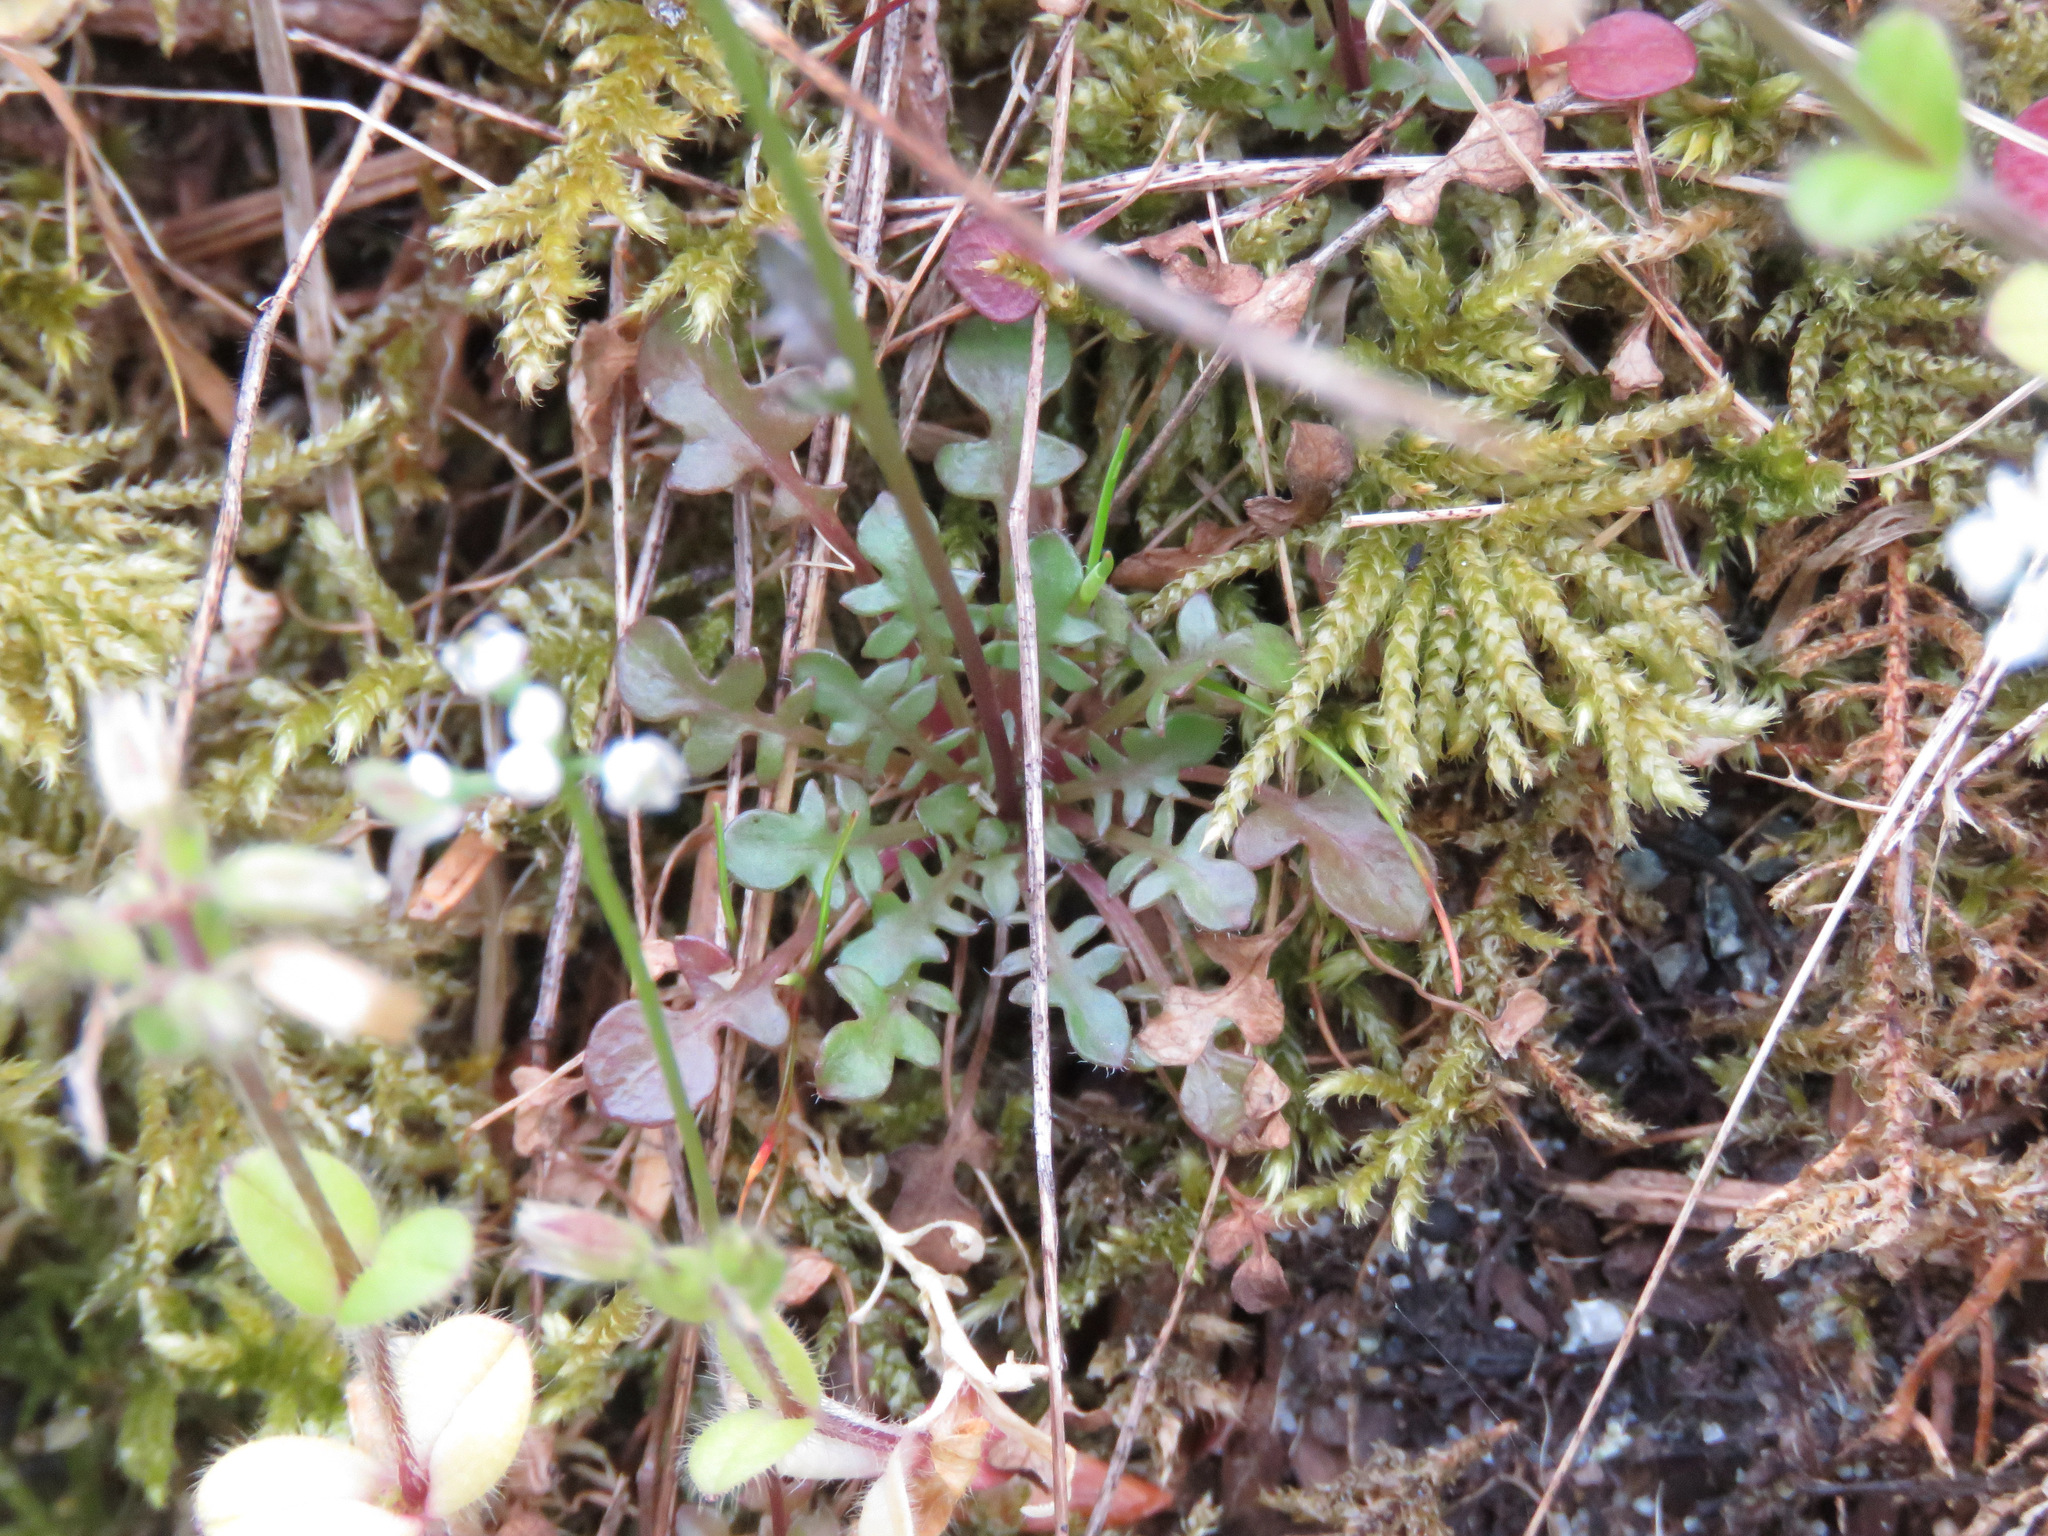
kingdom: Plantae
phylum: Tracheophyta
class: Magnoliopsida
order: Brassicales
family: Brassicaceae
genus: Teesdalia
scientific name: Teesdalia nudicaulis
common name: Shepherd's cress
